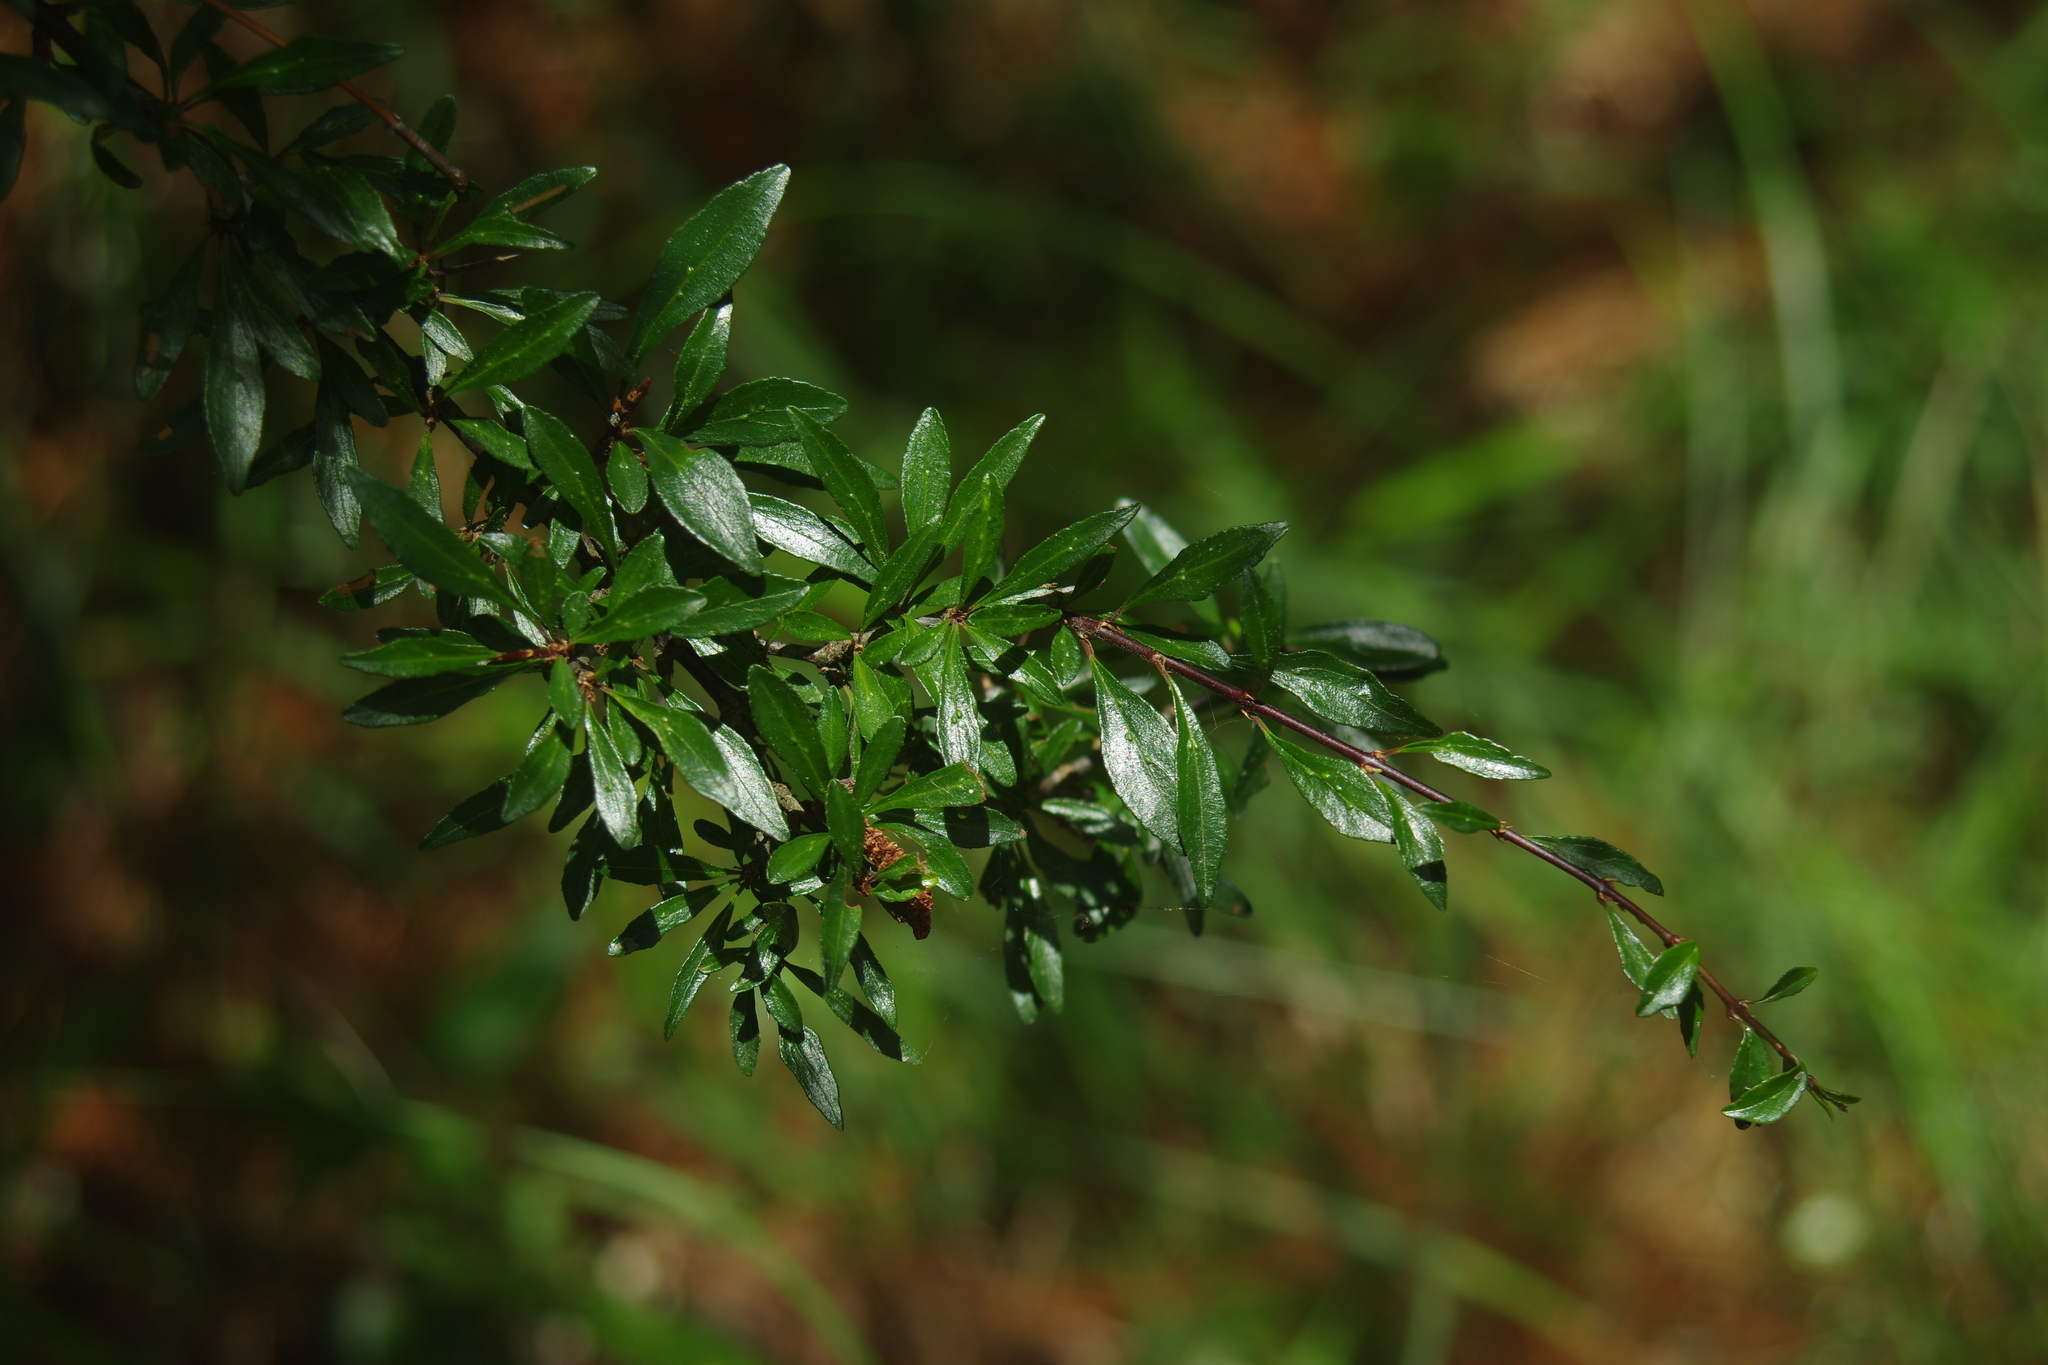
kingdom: Plantae
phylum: Tracheophyta
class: Magnoliopsida
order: Rosales
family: Rhamnaceae
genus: Rhamnus
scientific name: Rhamnus parvifolia
